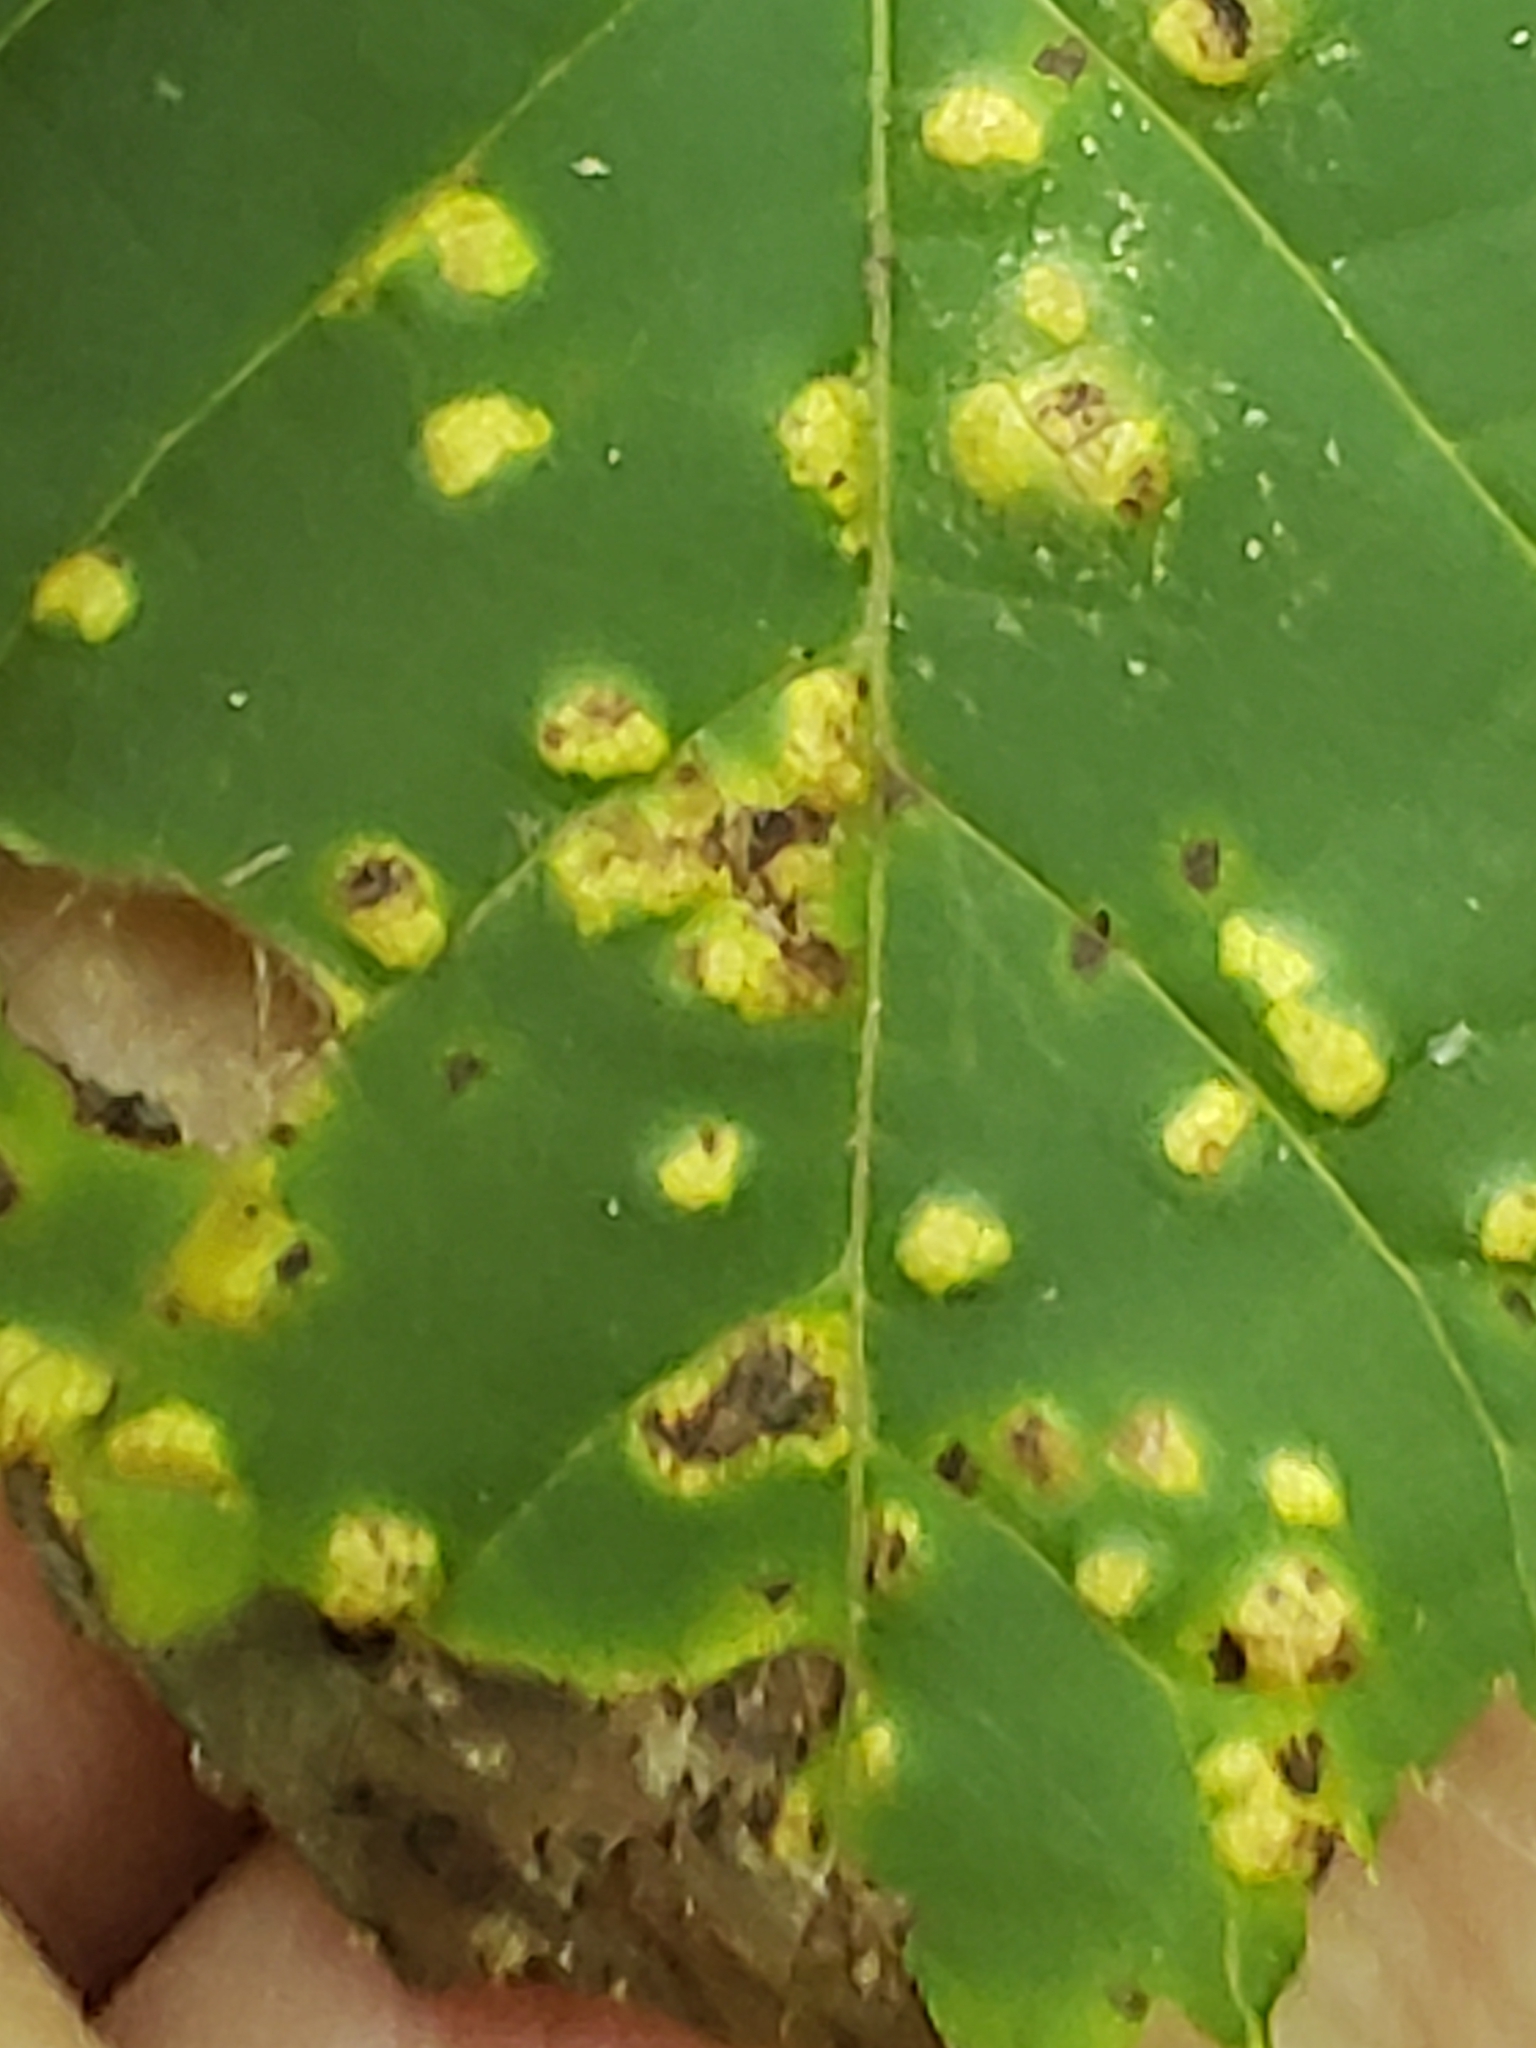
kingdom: Fungi
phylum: Basidiomycota
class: Exobasidiomycetes
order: Microstromatales
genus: Pseudomicrostroma
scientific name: Pseudomicrostroma juglandis
